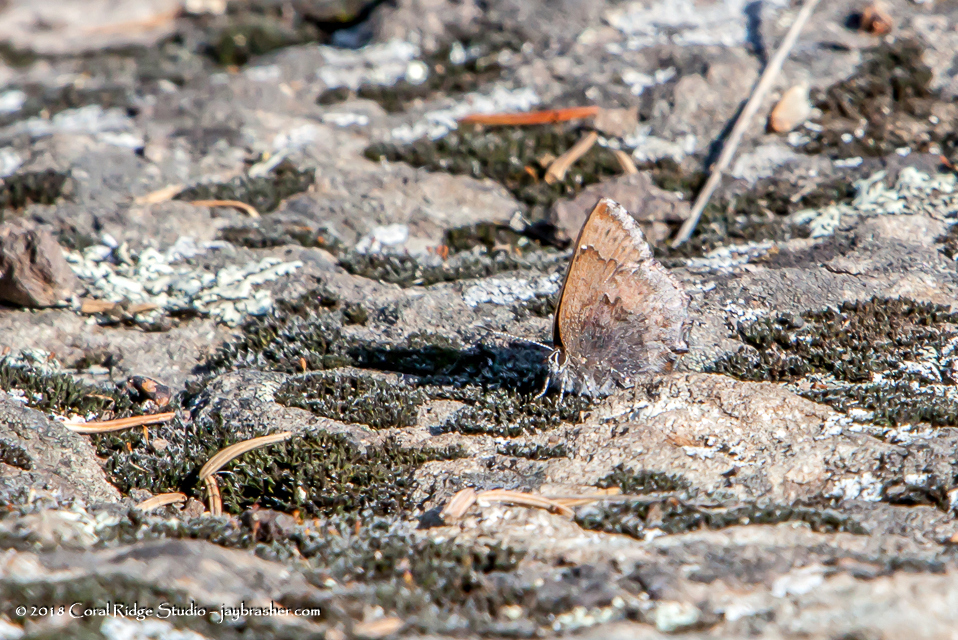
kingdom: Animalia
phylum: Arthropoda
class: Insecta
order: Lepidoptera
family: Lycaenidae
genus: Callophrys
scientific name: Callophrys polios
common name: Hoary elfin
